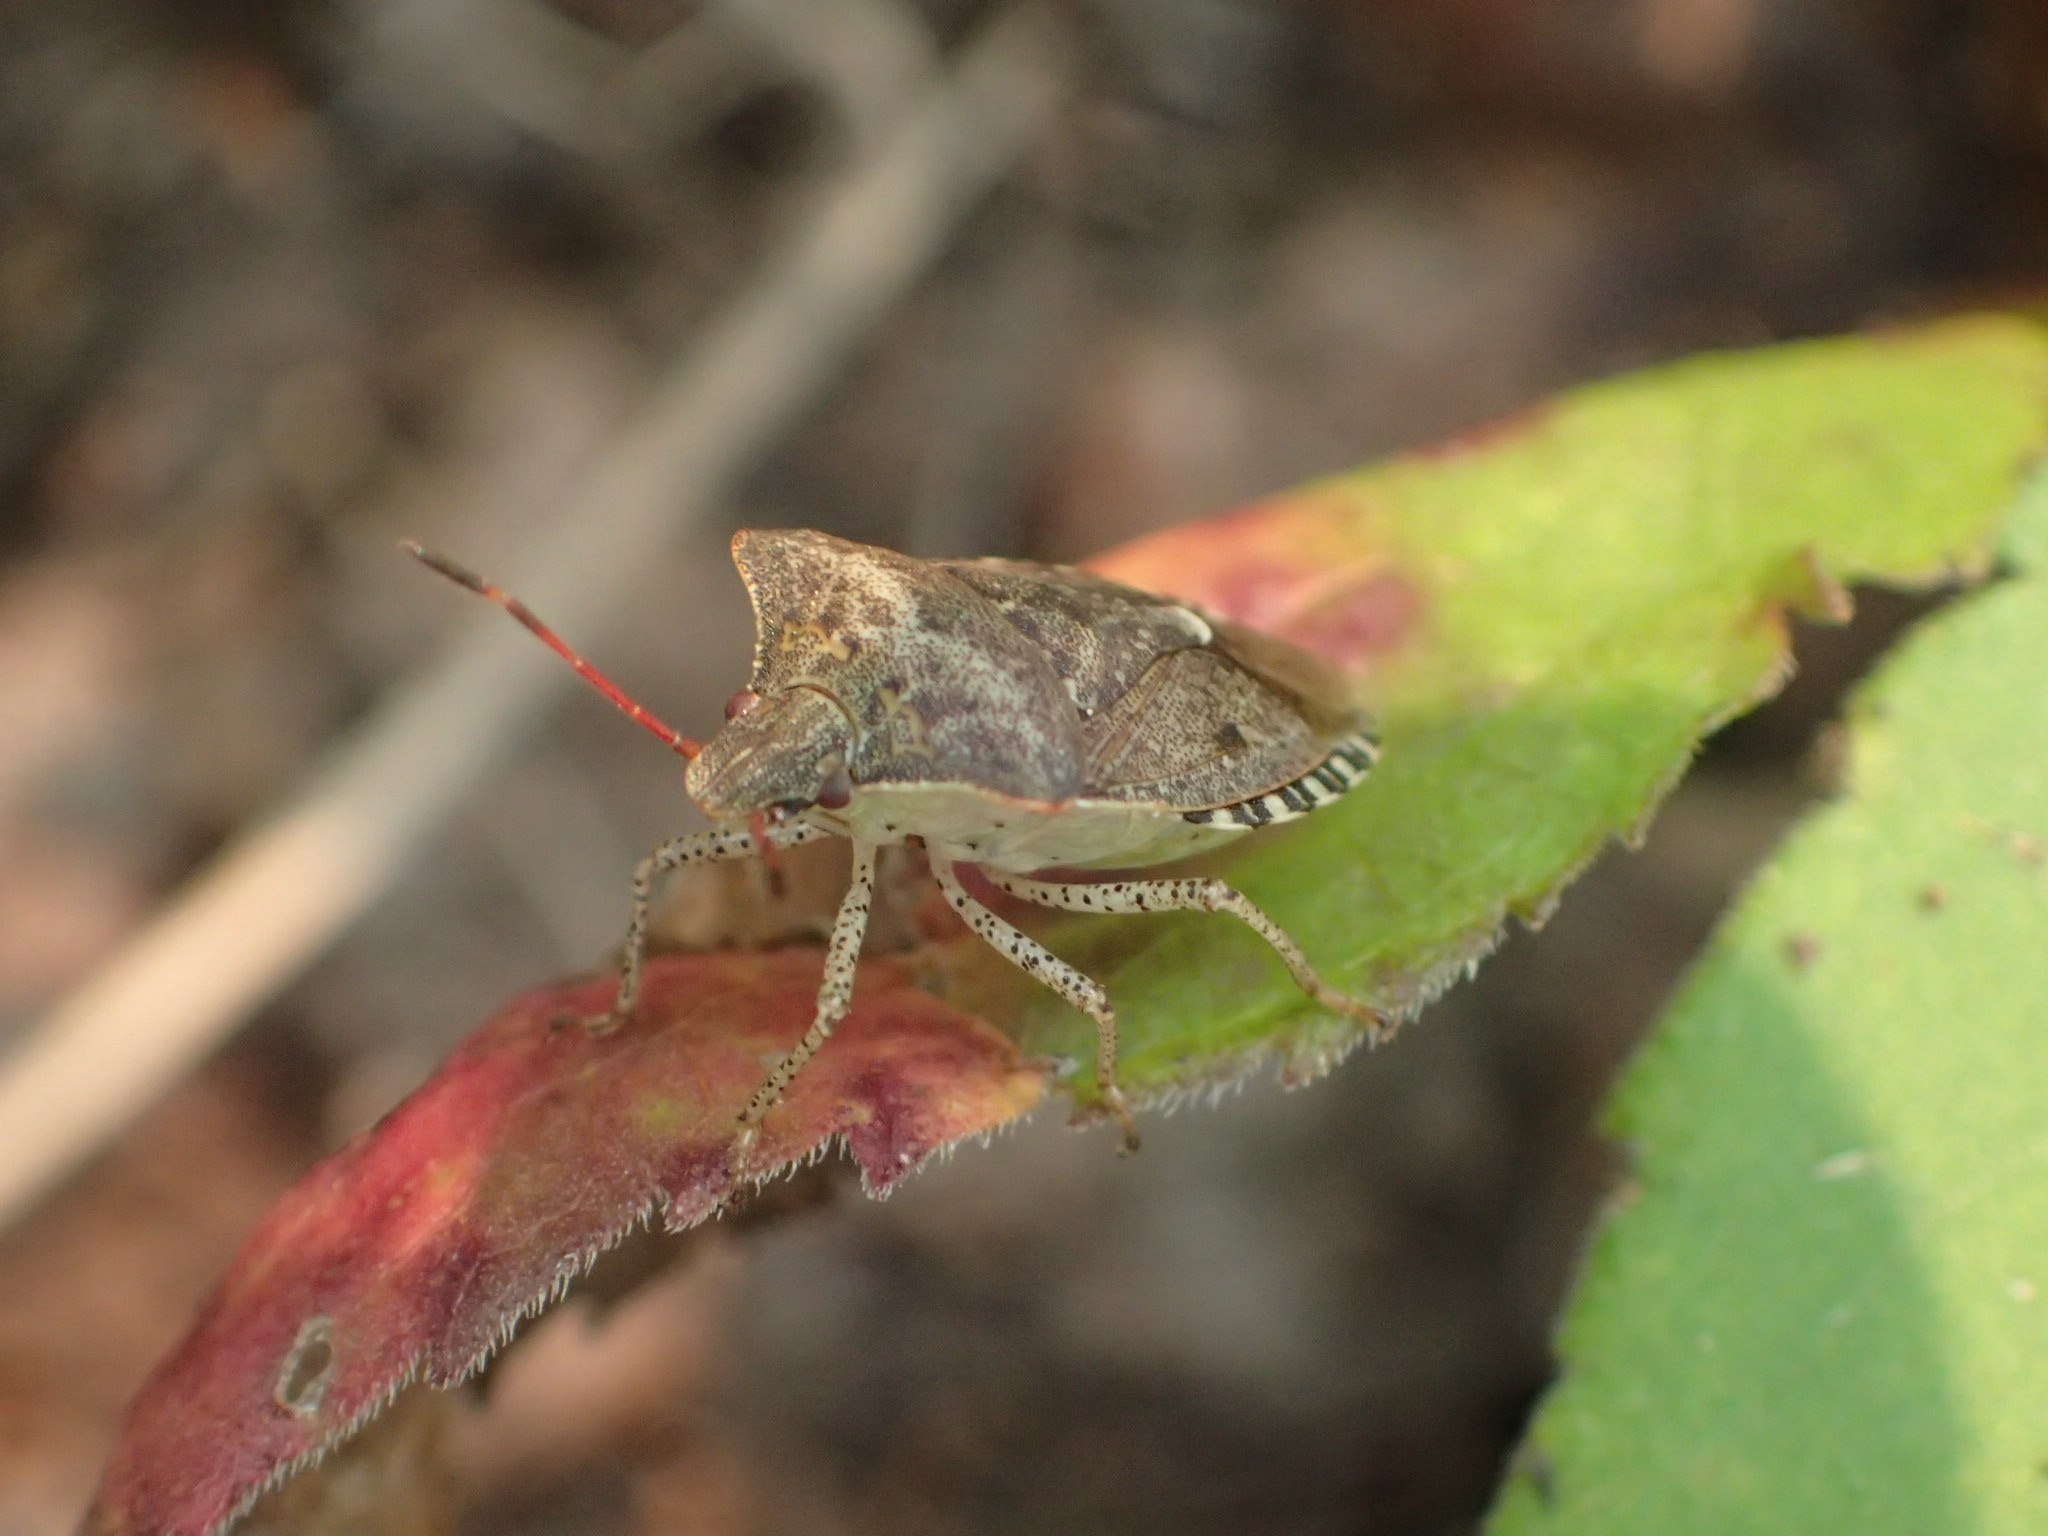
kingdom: Animalia
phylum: Arthropoda
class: Insecta
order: Hemiptera
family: Pentatomidae
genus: Euschistus
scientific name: Euschistus tristigmus
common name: Dusky stink bug
